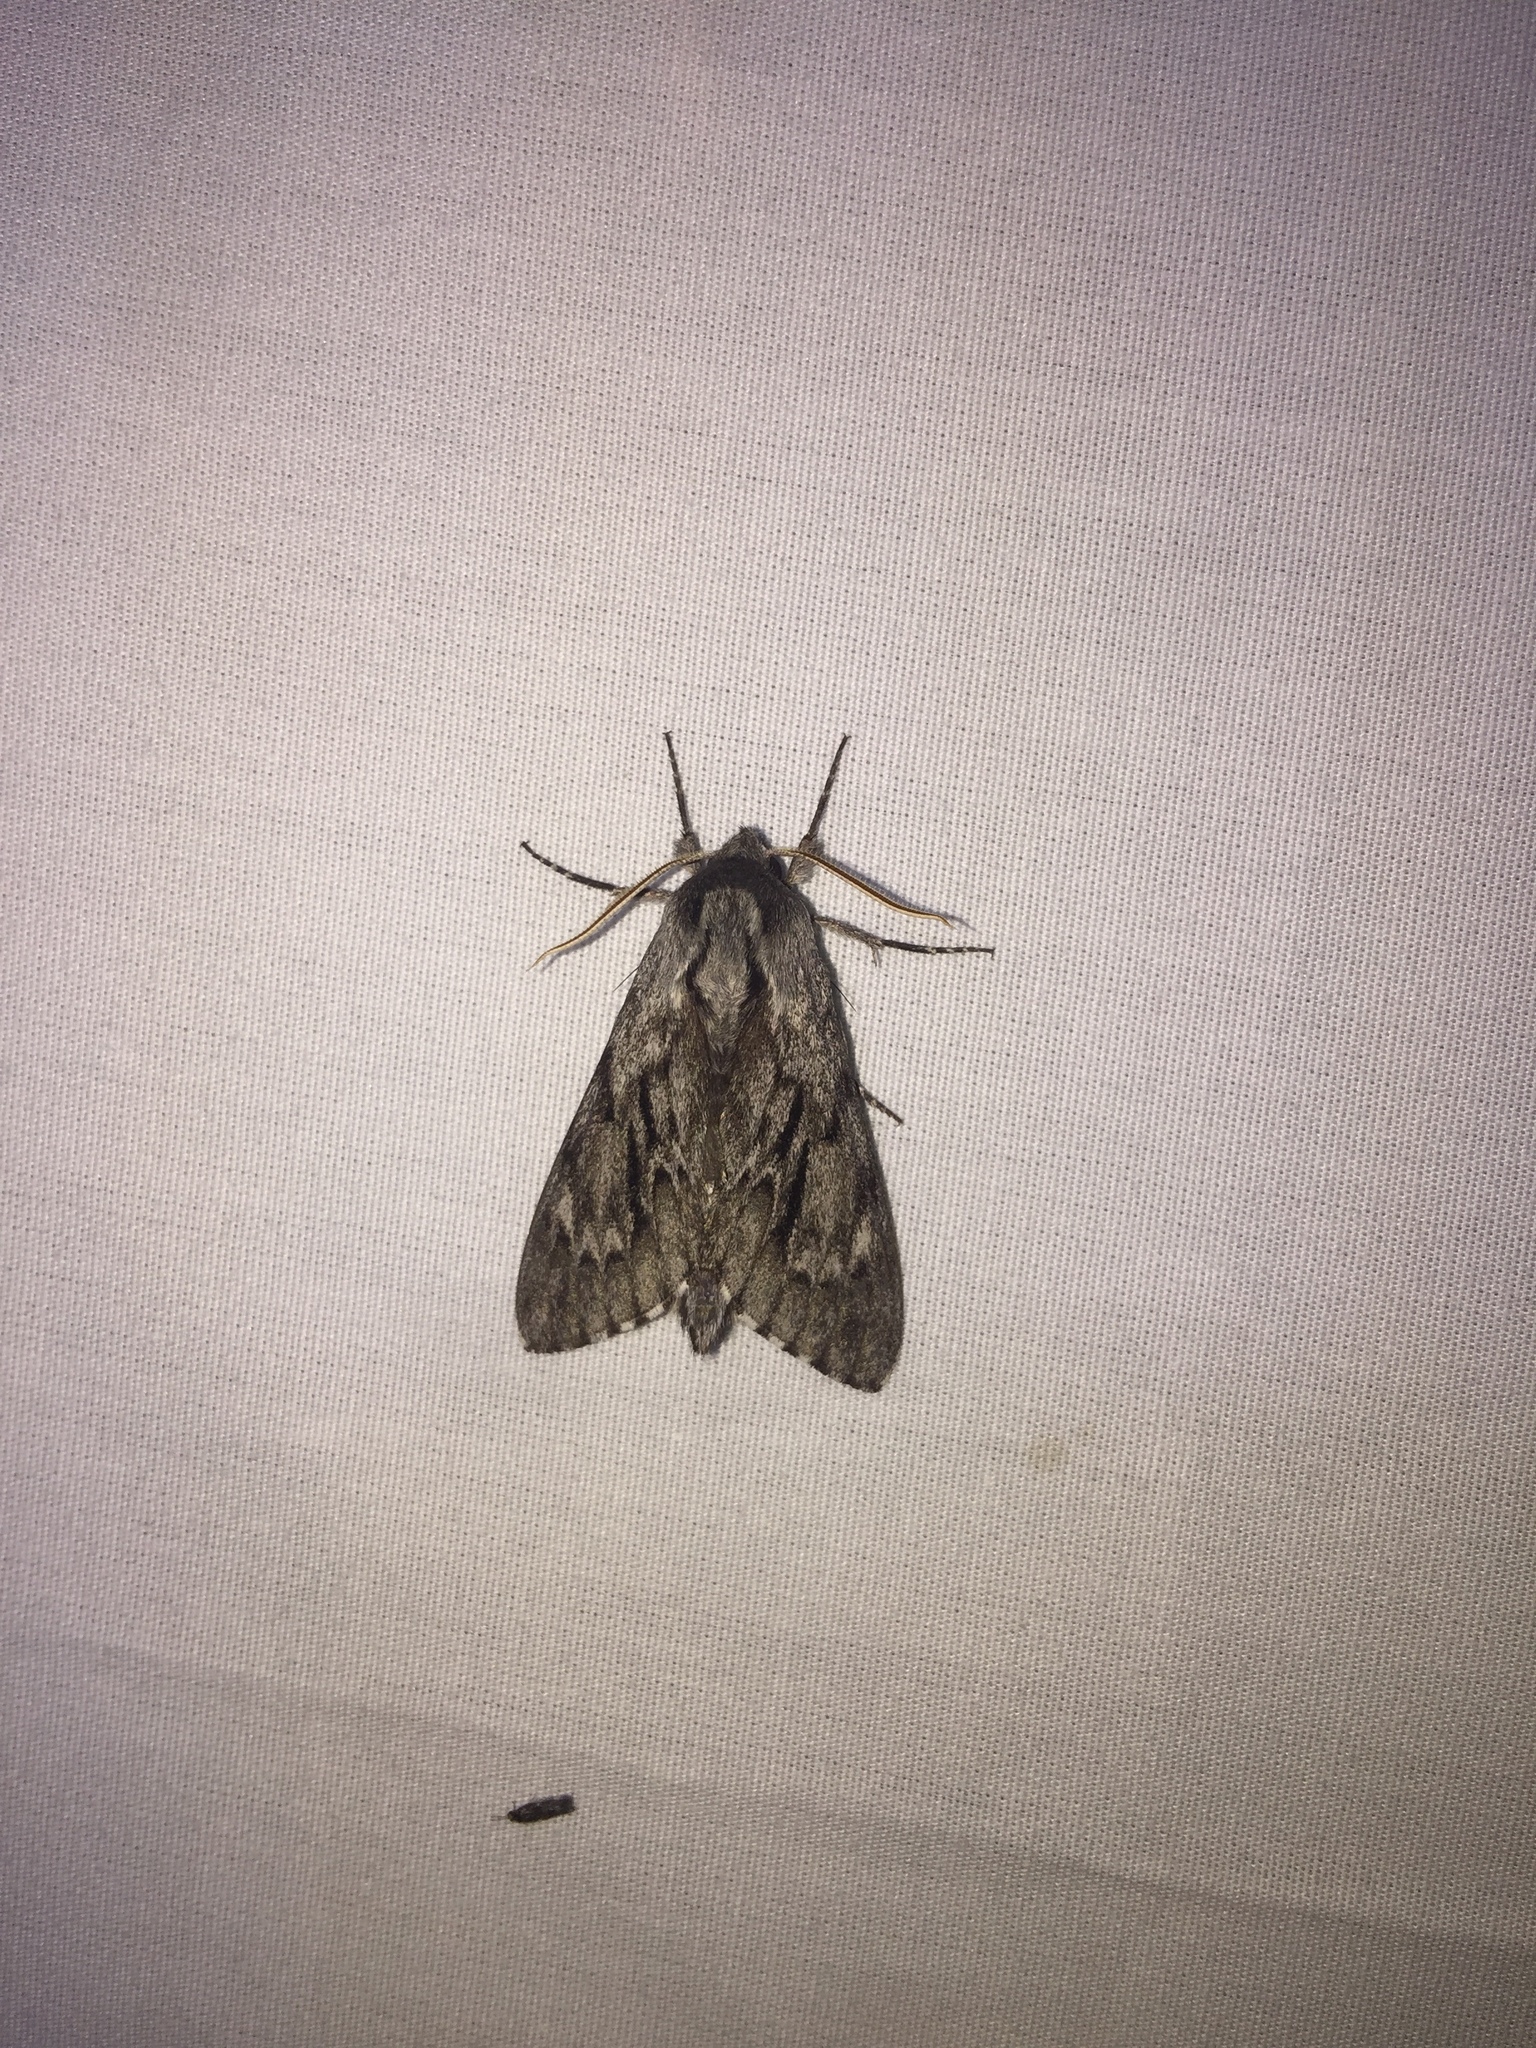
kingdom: Animalia
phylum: Arthropoda
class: Insecta
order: Lepidoptera
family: Sphingidae
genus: Lapara
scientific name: Lapara bombycoides
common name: Northern pine sphinx
